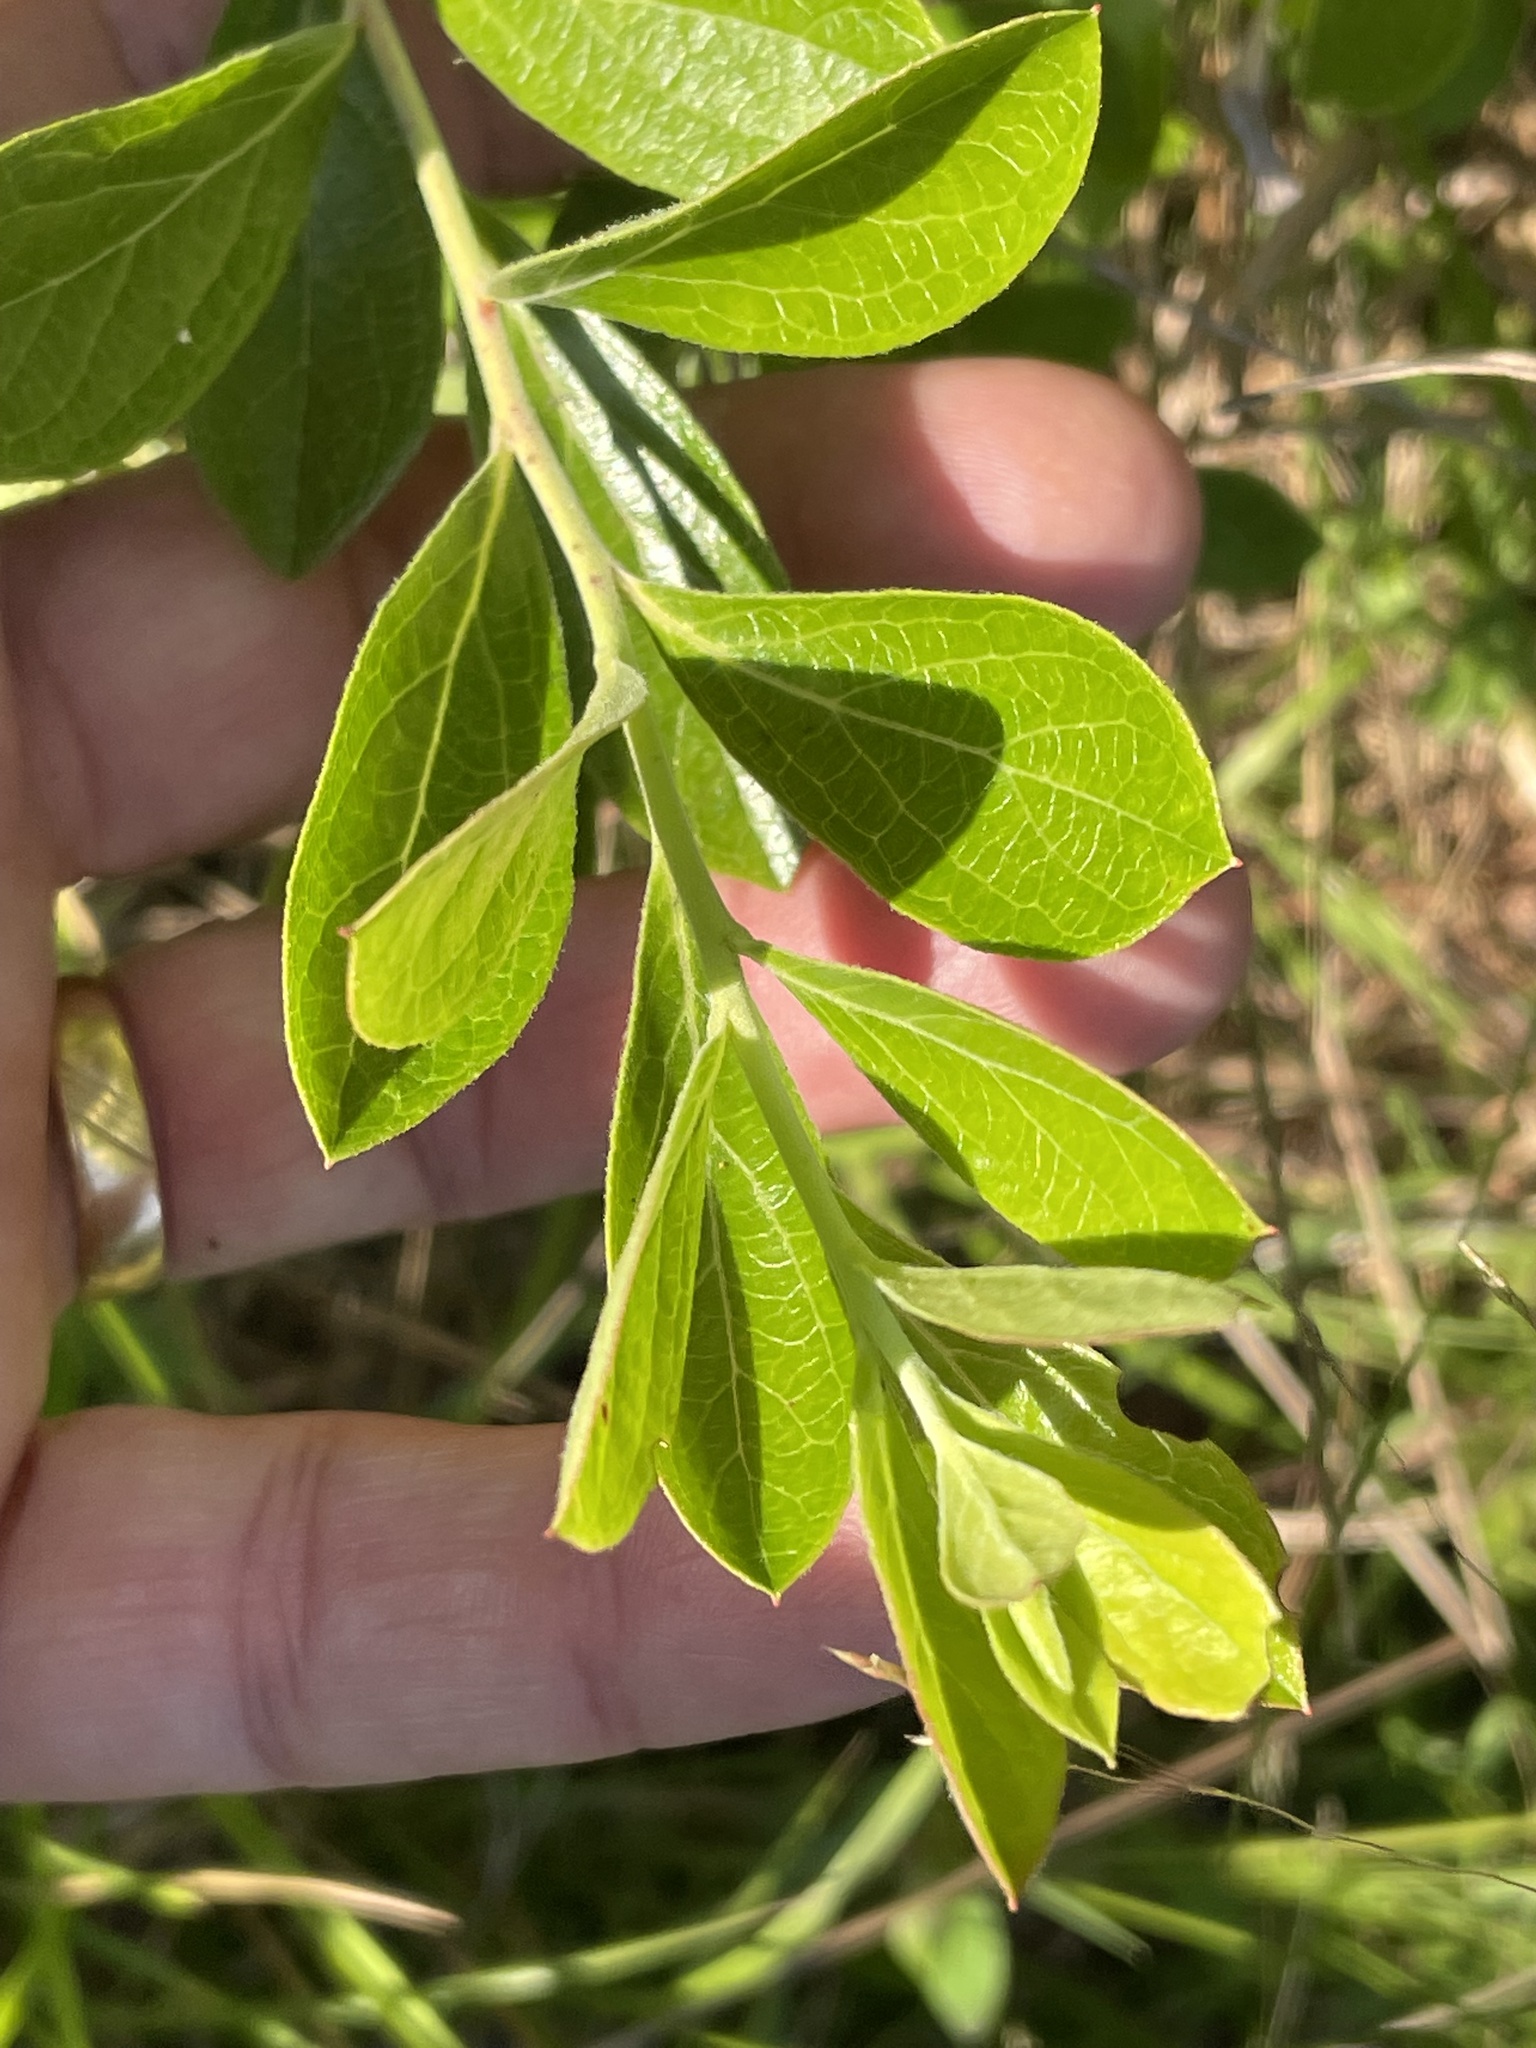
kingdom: Plantae
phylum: Tracheophyta
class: Magnoliopsida
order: Ericales
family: Ericaceae
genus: Gaylussacia
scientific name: Gaylussacia dumosa
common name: Dwarf huckleberry
